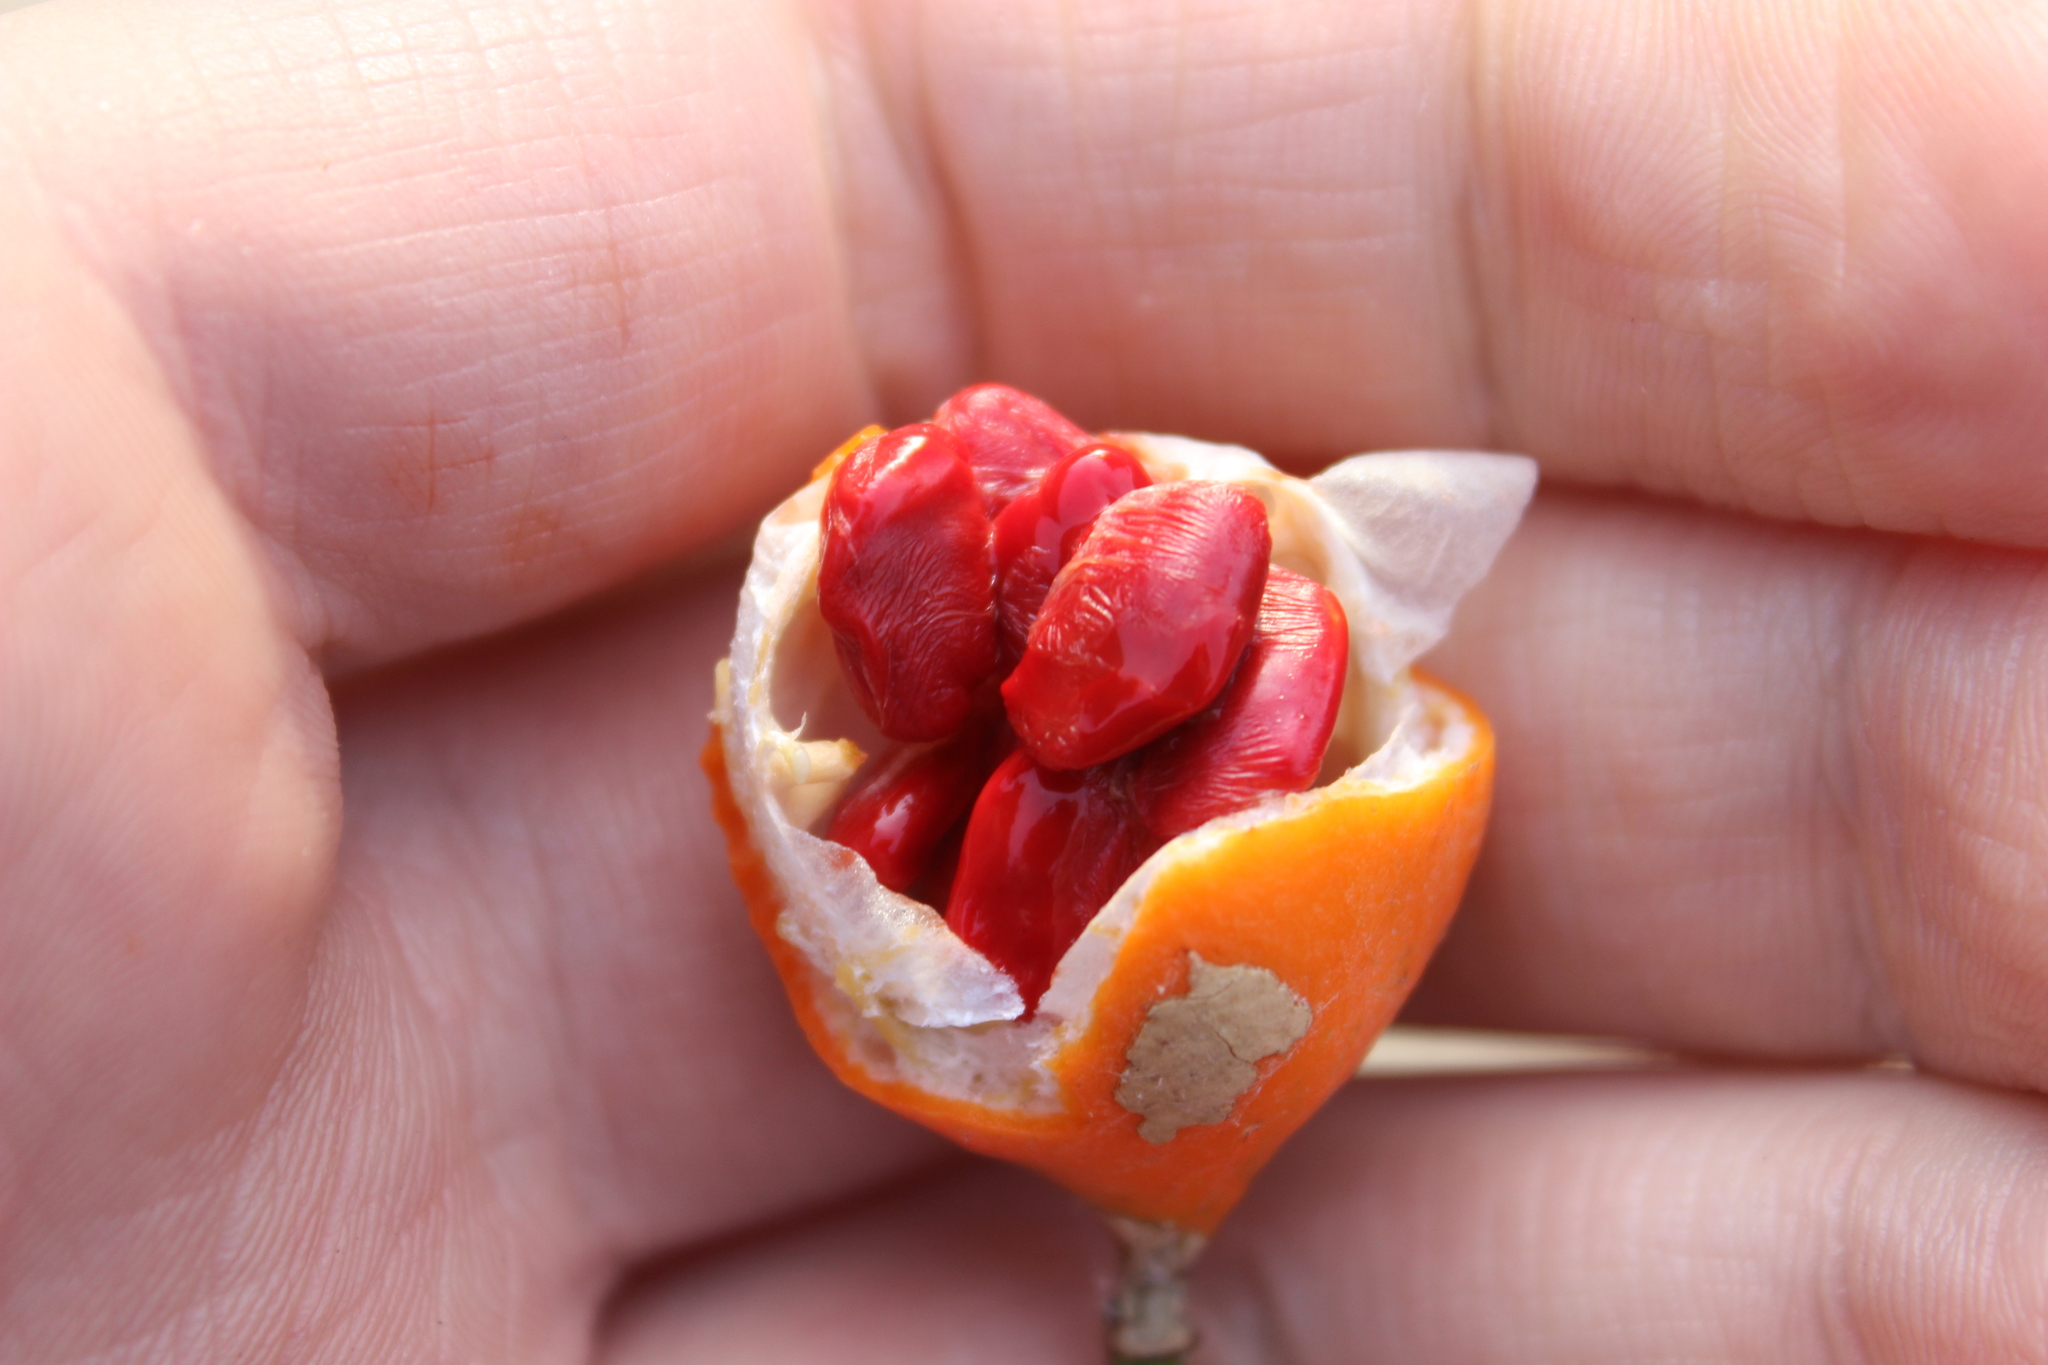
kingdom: Plantae
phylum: Tracheophyta
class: Magnoliopsida
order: Malpighiales
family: Passifloraceae
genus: Passiflora
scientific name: Passiflora tetrandra
